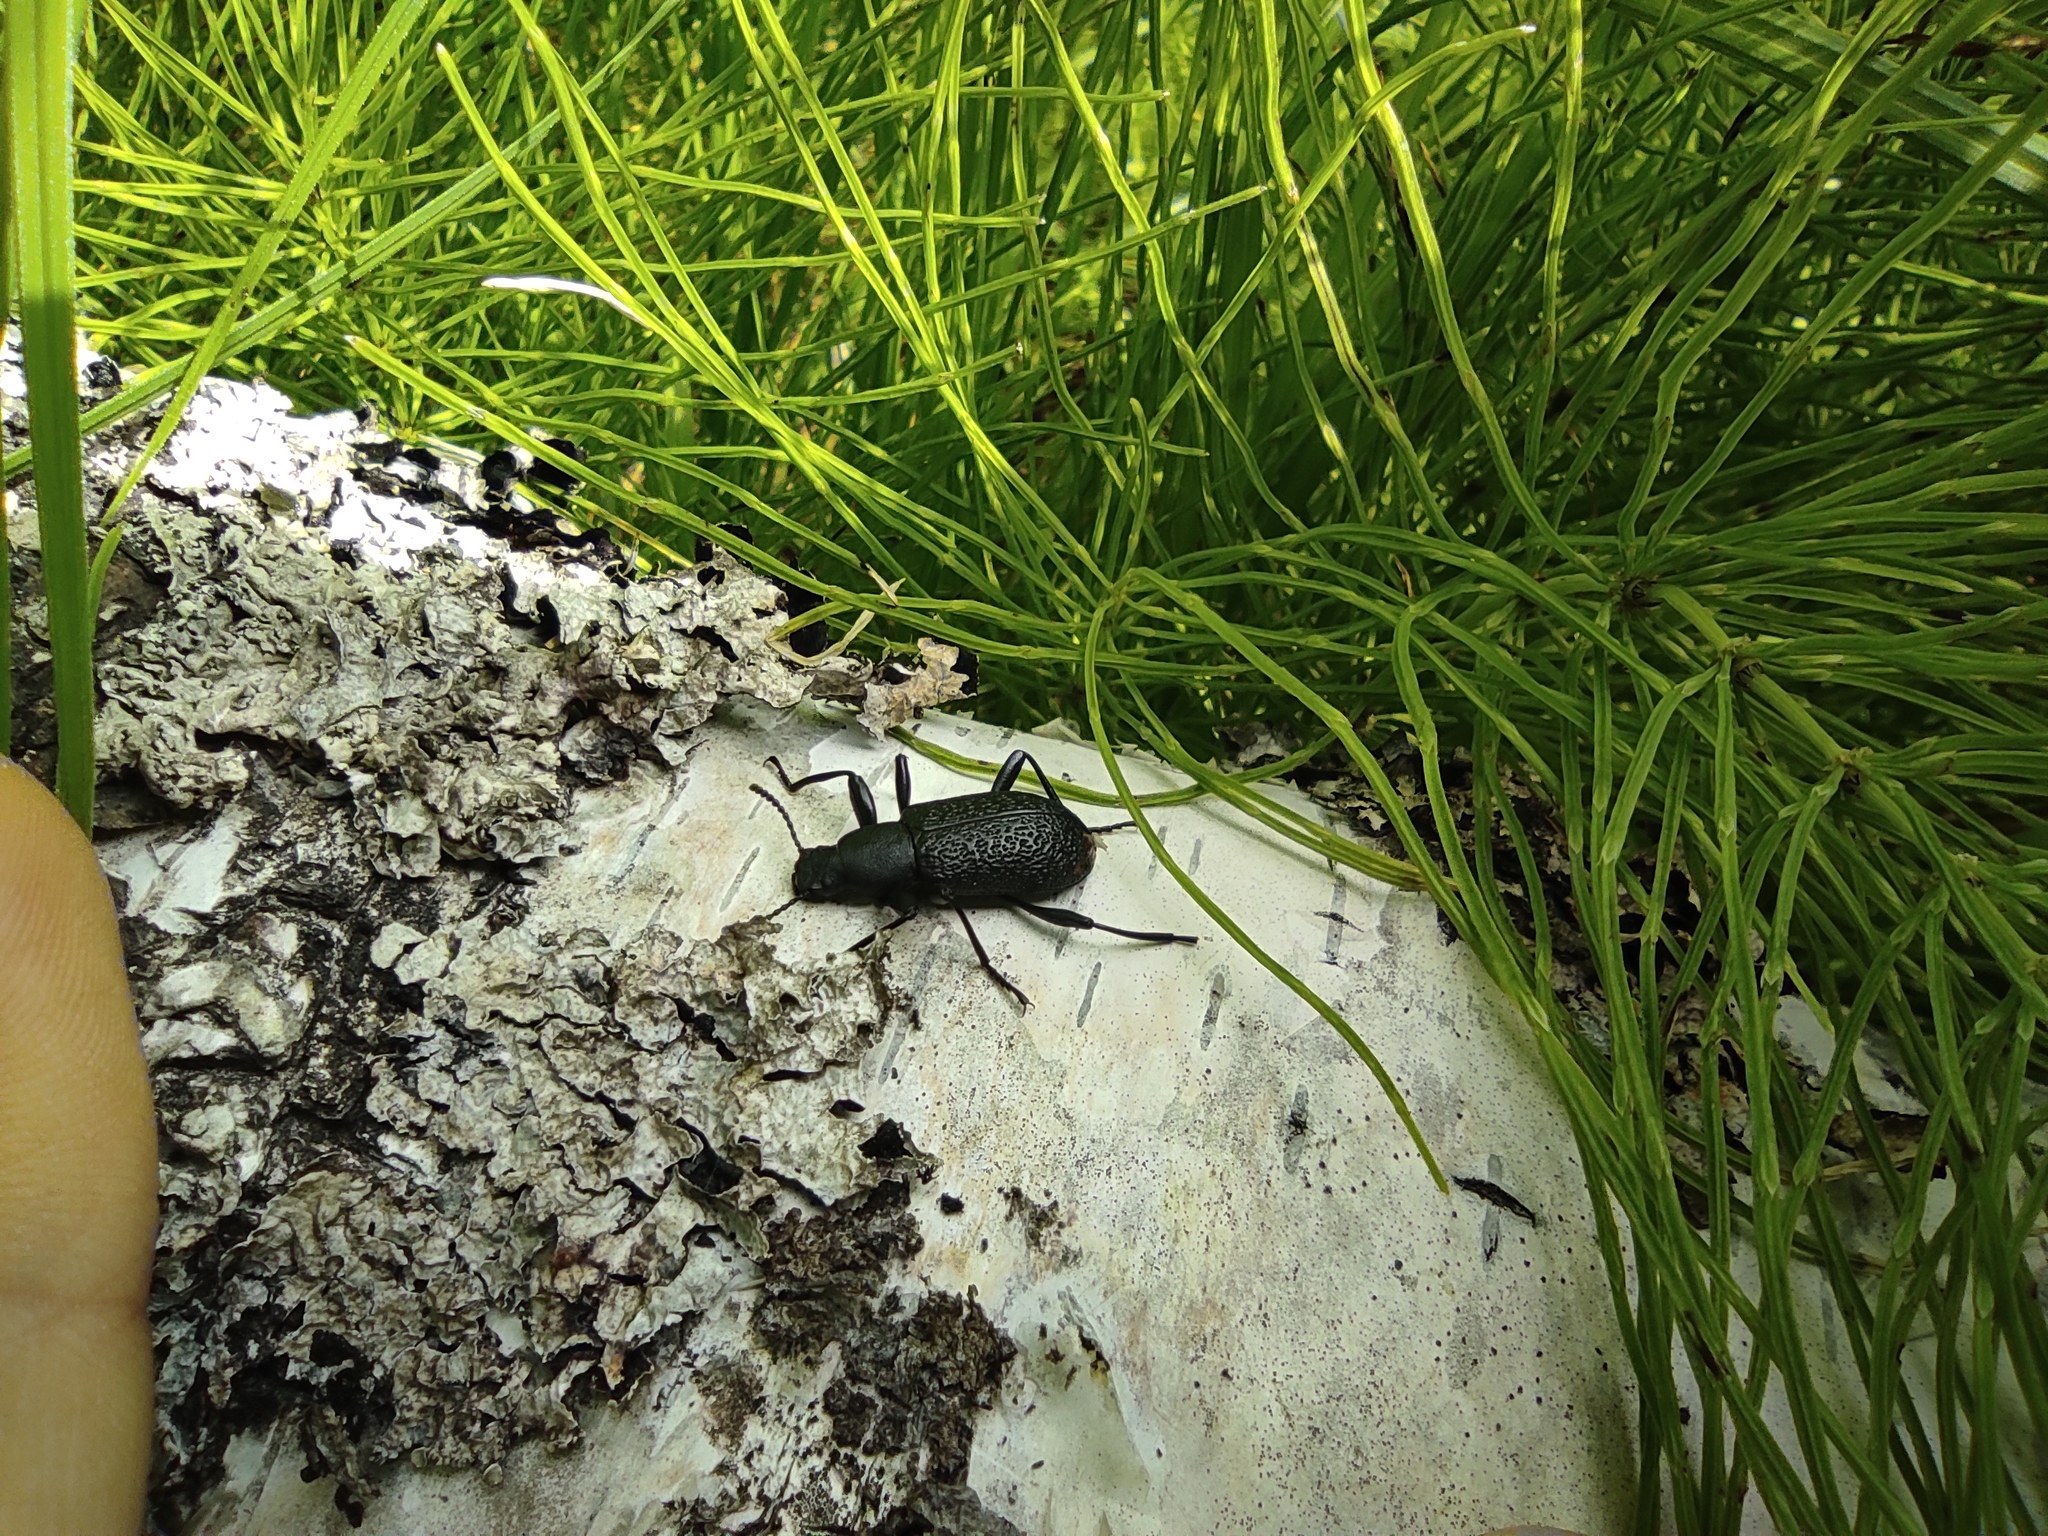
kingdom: Plantae
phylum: Tracheophyta
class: Polypodiopsida
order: Equisetales
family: Equisetaceae
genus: Equisetum
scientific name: Equisetum arvense
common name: Field horsetail
